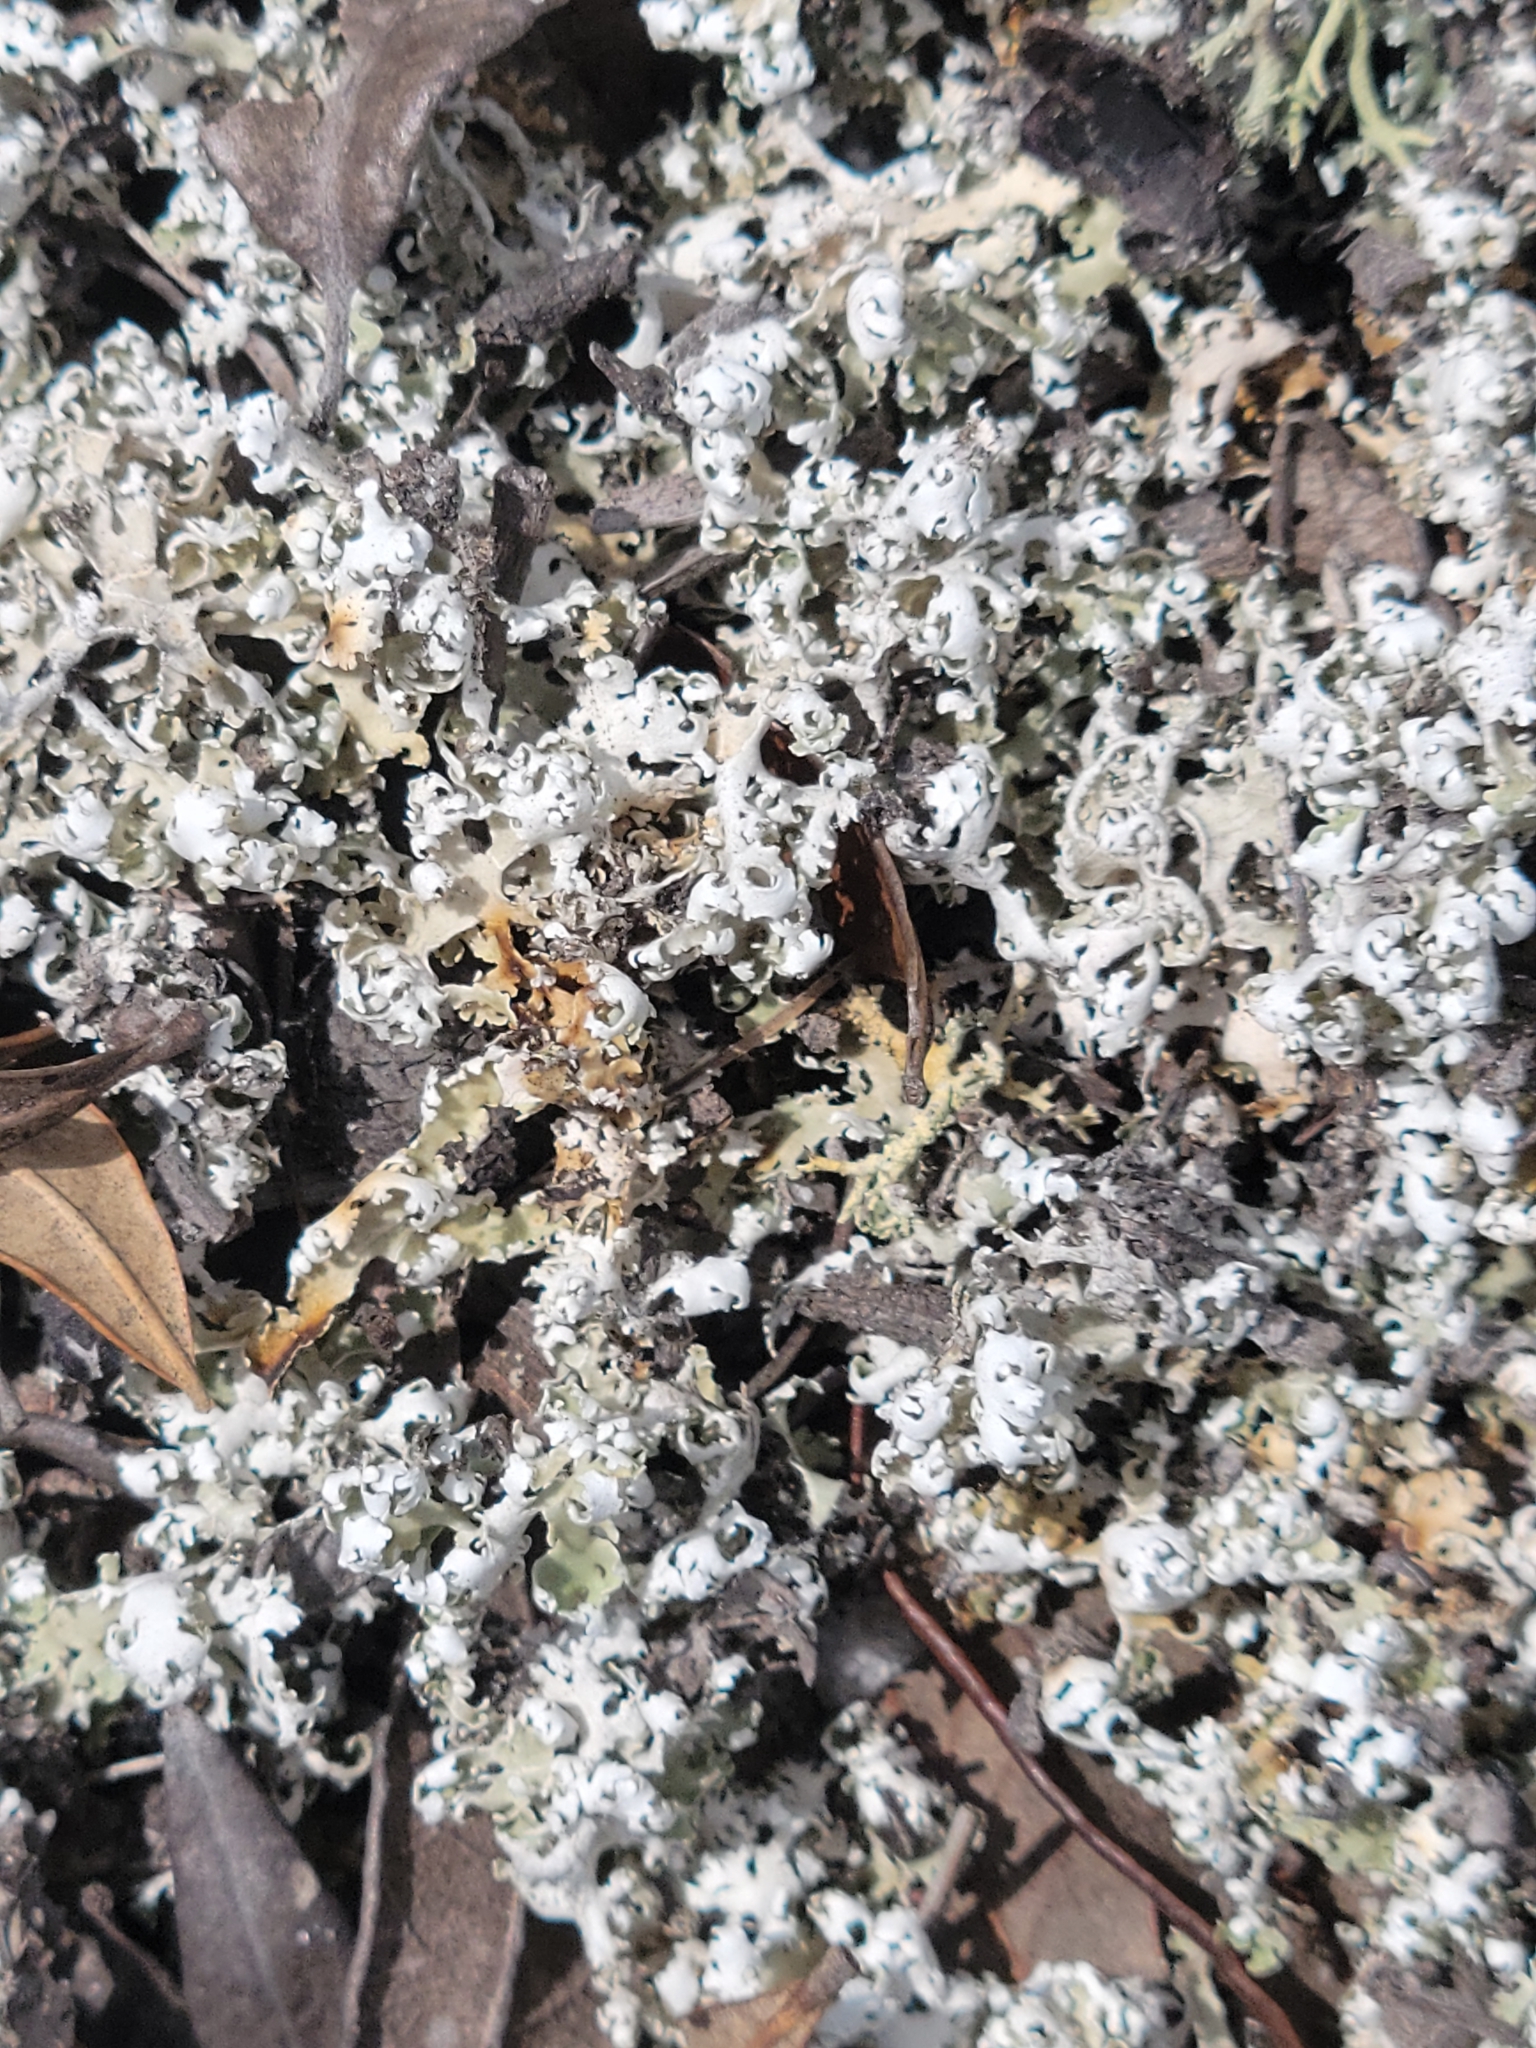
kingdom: Fungi
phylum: Ascomycota
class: Lecanoromycetes
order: Lecanorales
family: Cladoniaceae
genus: Cladonia
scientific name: Cladonia prostrata
